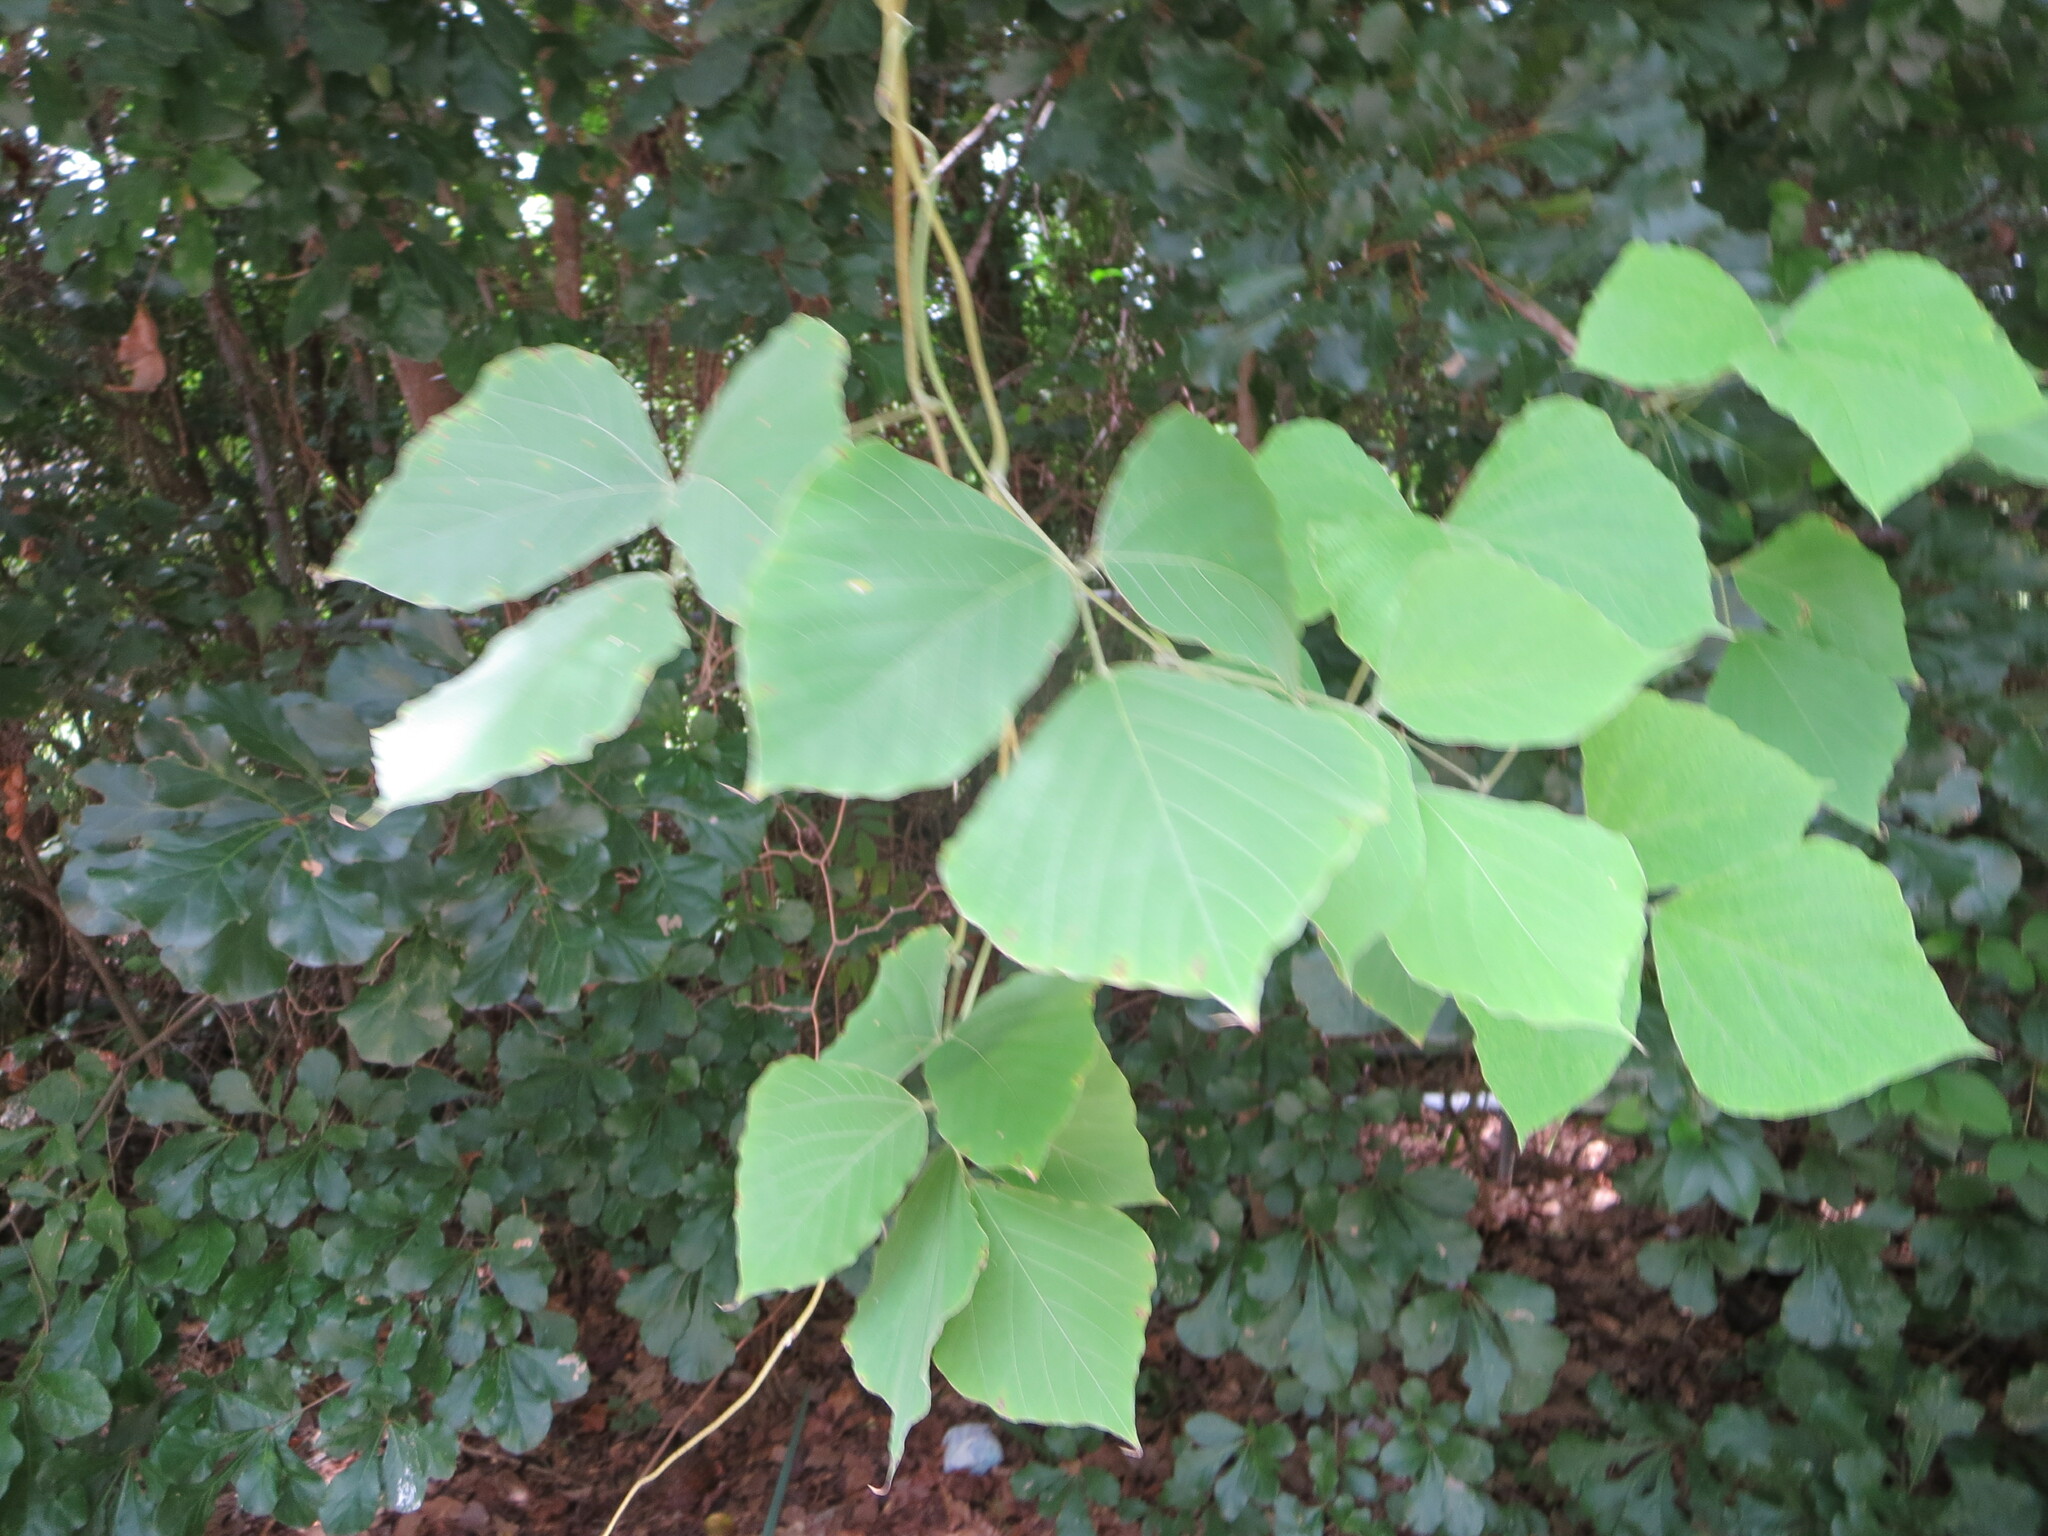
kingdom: Plantae
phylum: Tracheophyta
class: Magnoliopsida
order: Fabales
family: Fabaceae
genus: Pueraria
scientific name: Pueraria montana
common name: Kudzu
